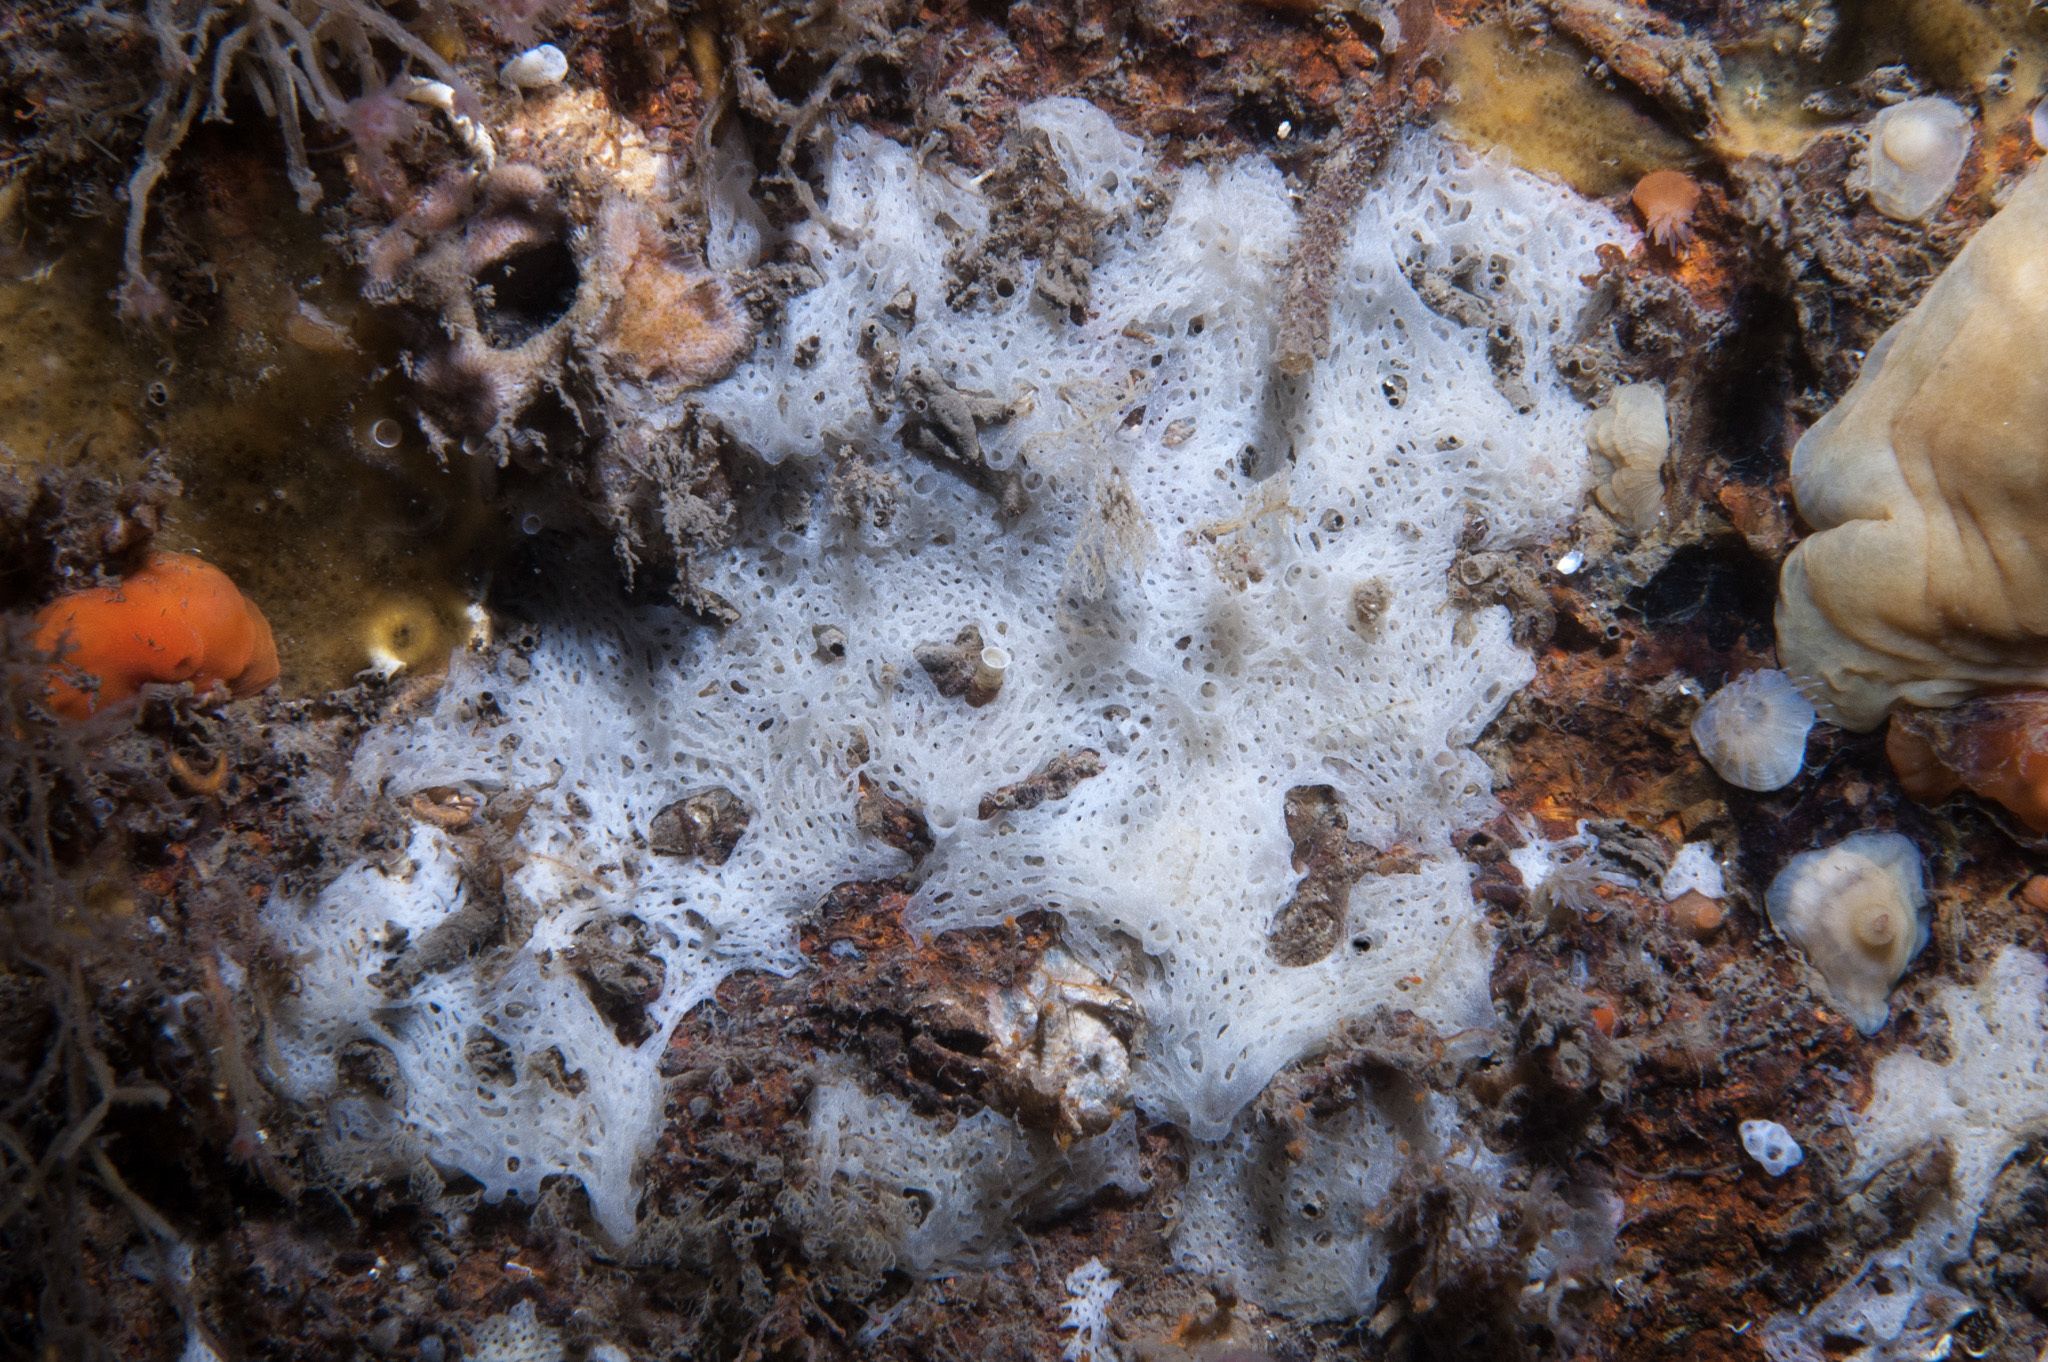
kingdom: Animalia
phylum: Porifera
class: Calcarea
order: Clathrinida
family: Clathrinidae
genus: Clathrina
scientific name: Clathrina coriacea
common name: White clathrina
